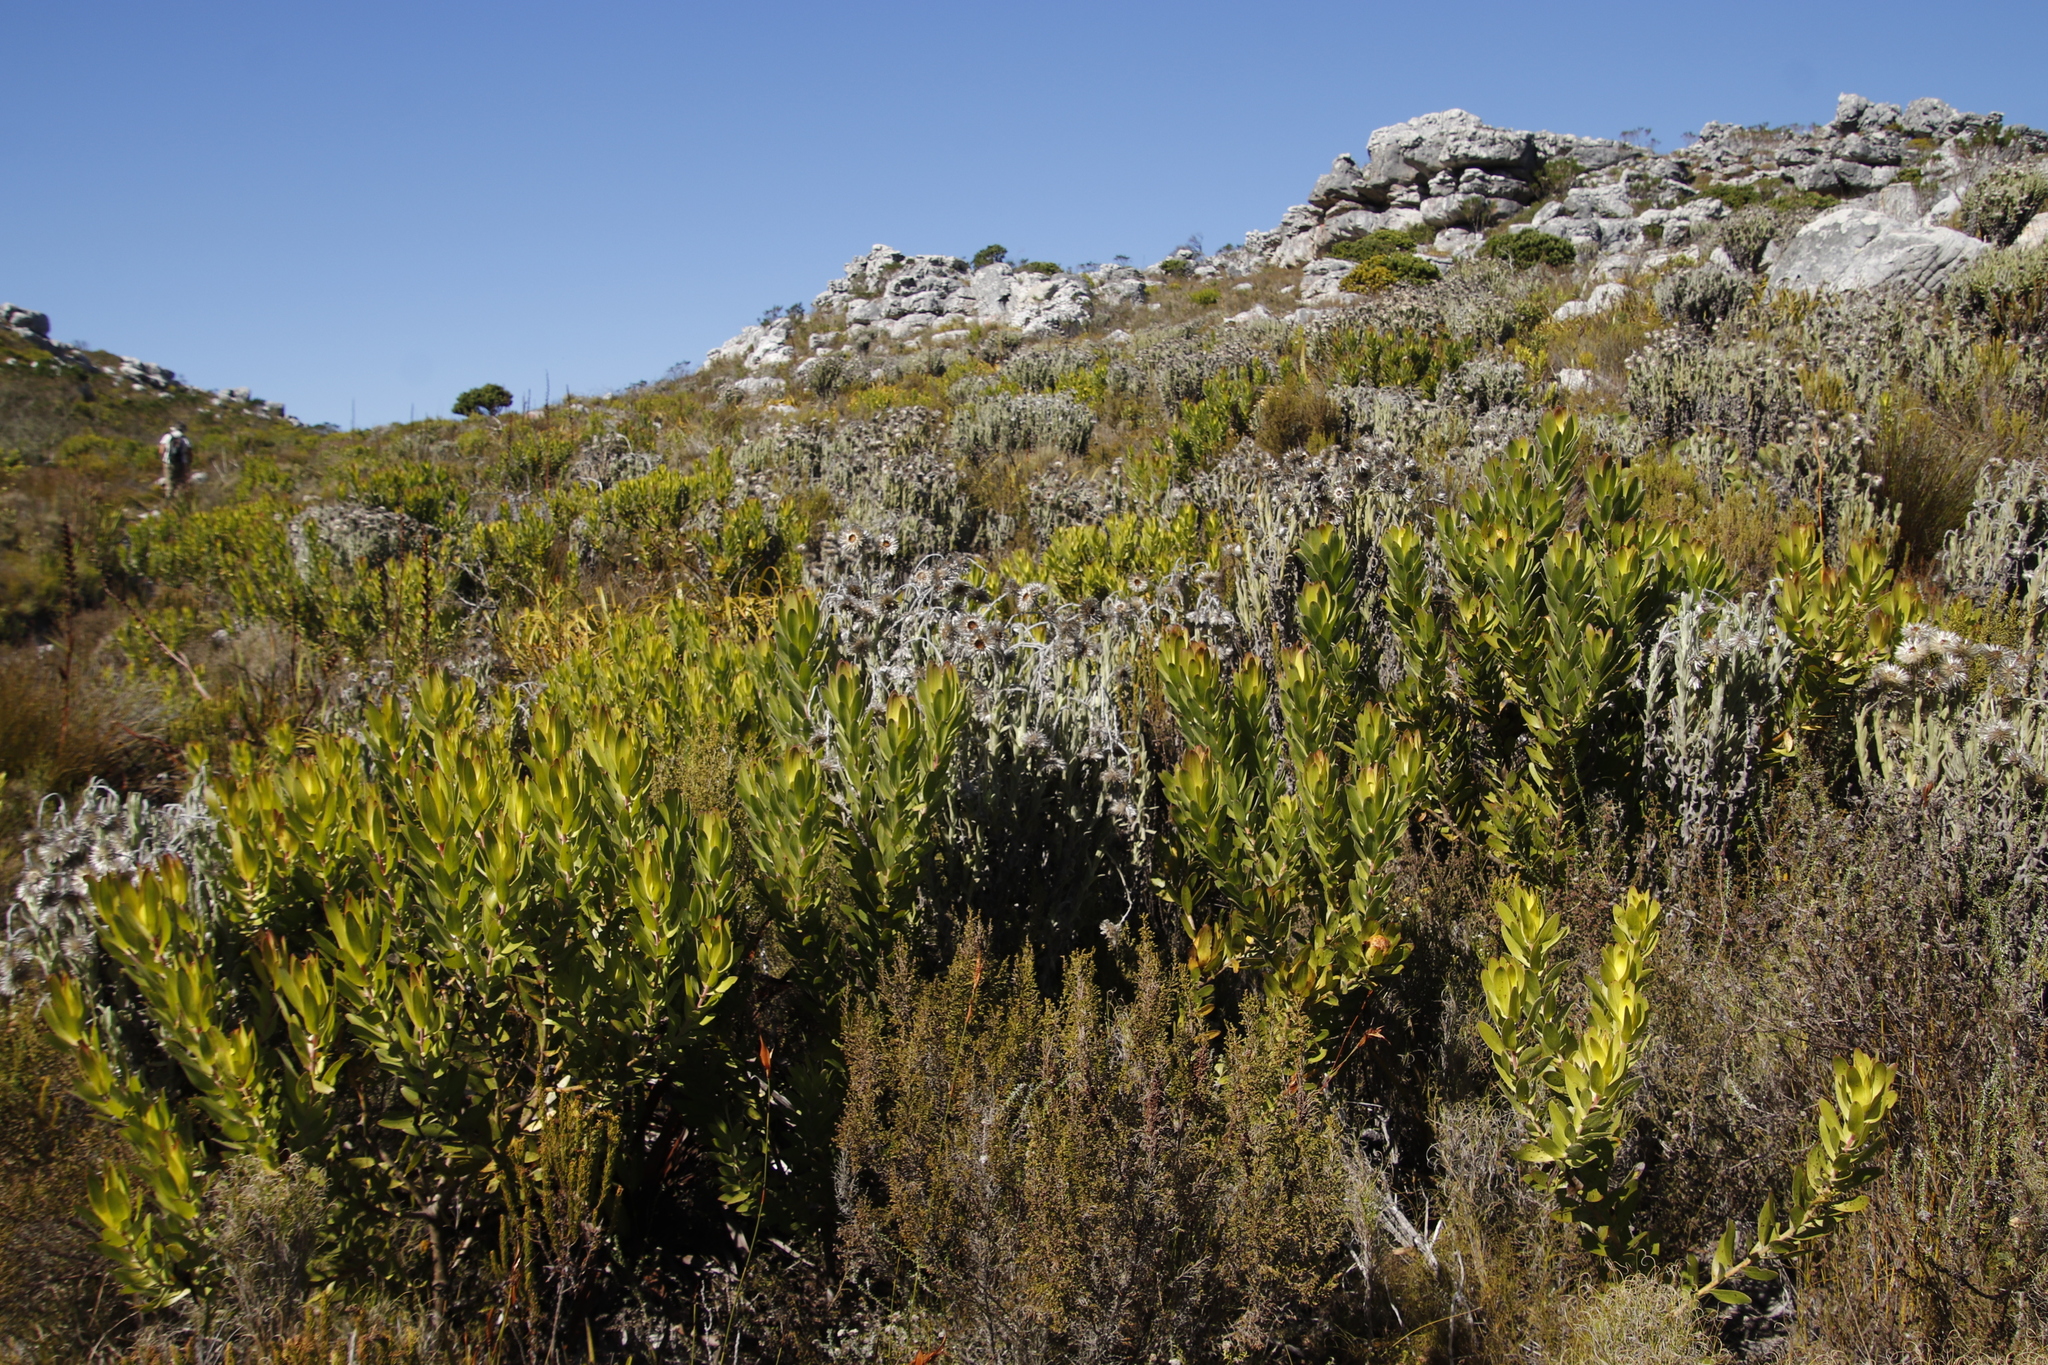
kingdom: Plantae
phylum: Tracheophyta
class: Magnoliopsida
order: Asterales
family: Asteraceae
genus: Syncarpha
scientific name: Syncarpha vestita
